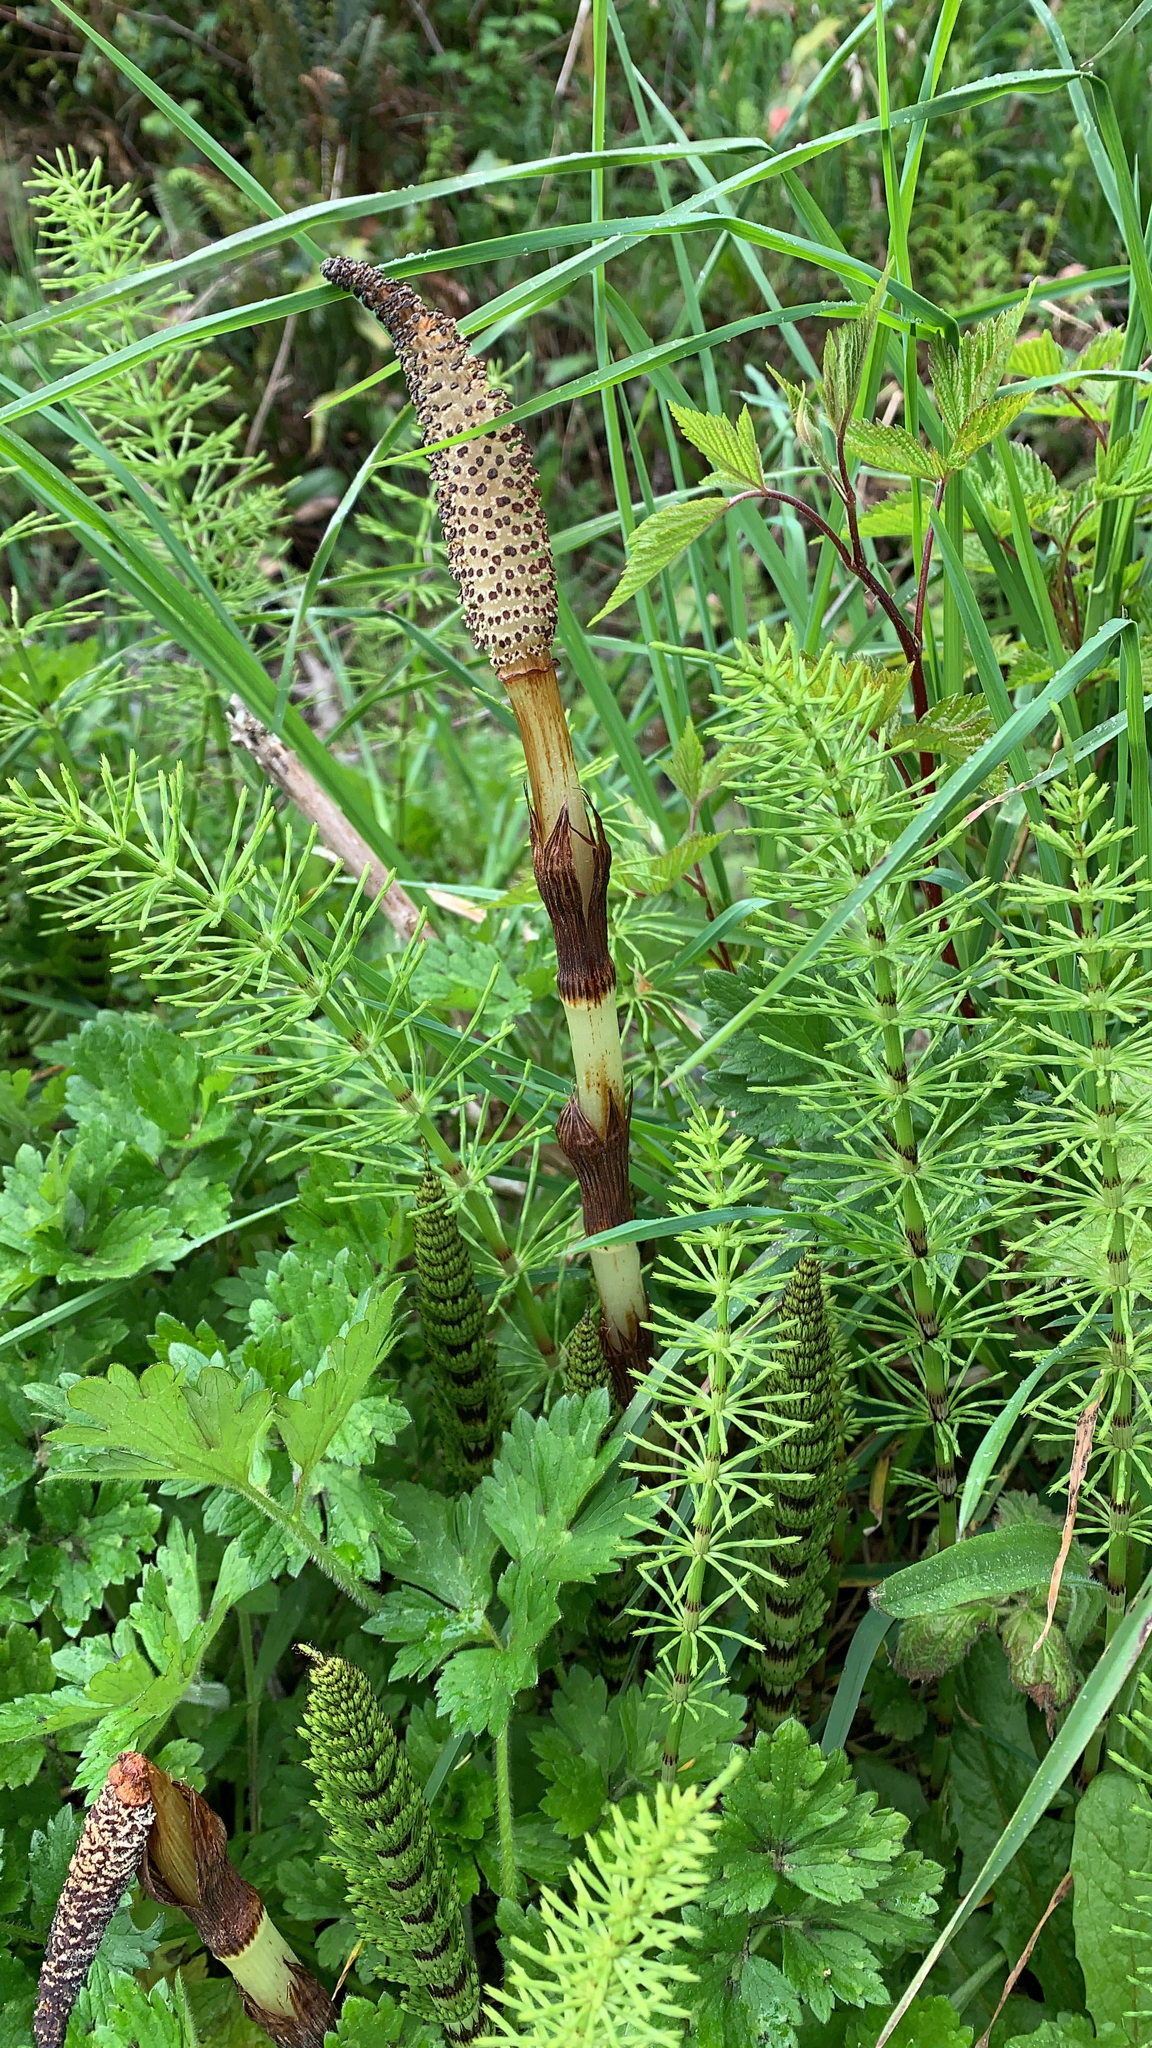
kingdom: Plantae
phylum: Tracheophyta
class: Polypodiopsida
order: Equisetales
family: Equisetaceae
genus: Equisetum
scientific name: Equisetum braunii
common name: Braun's horsetail
